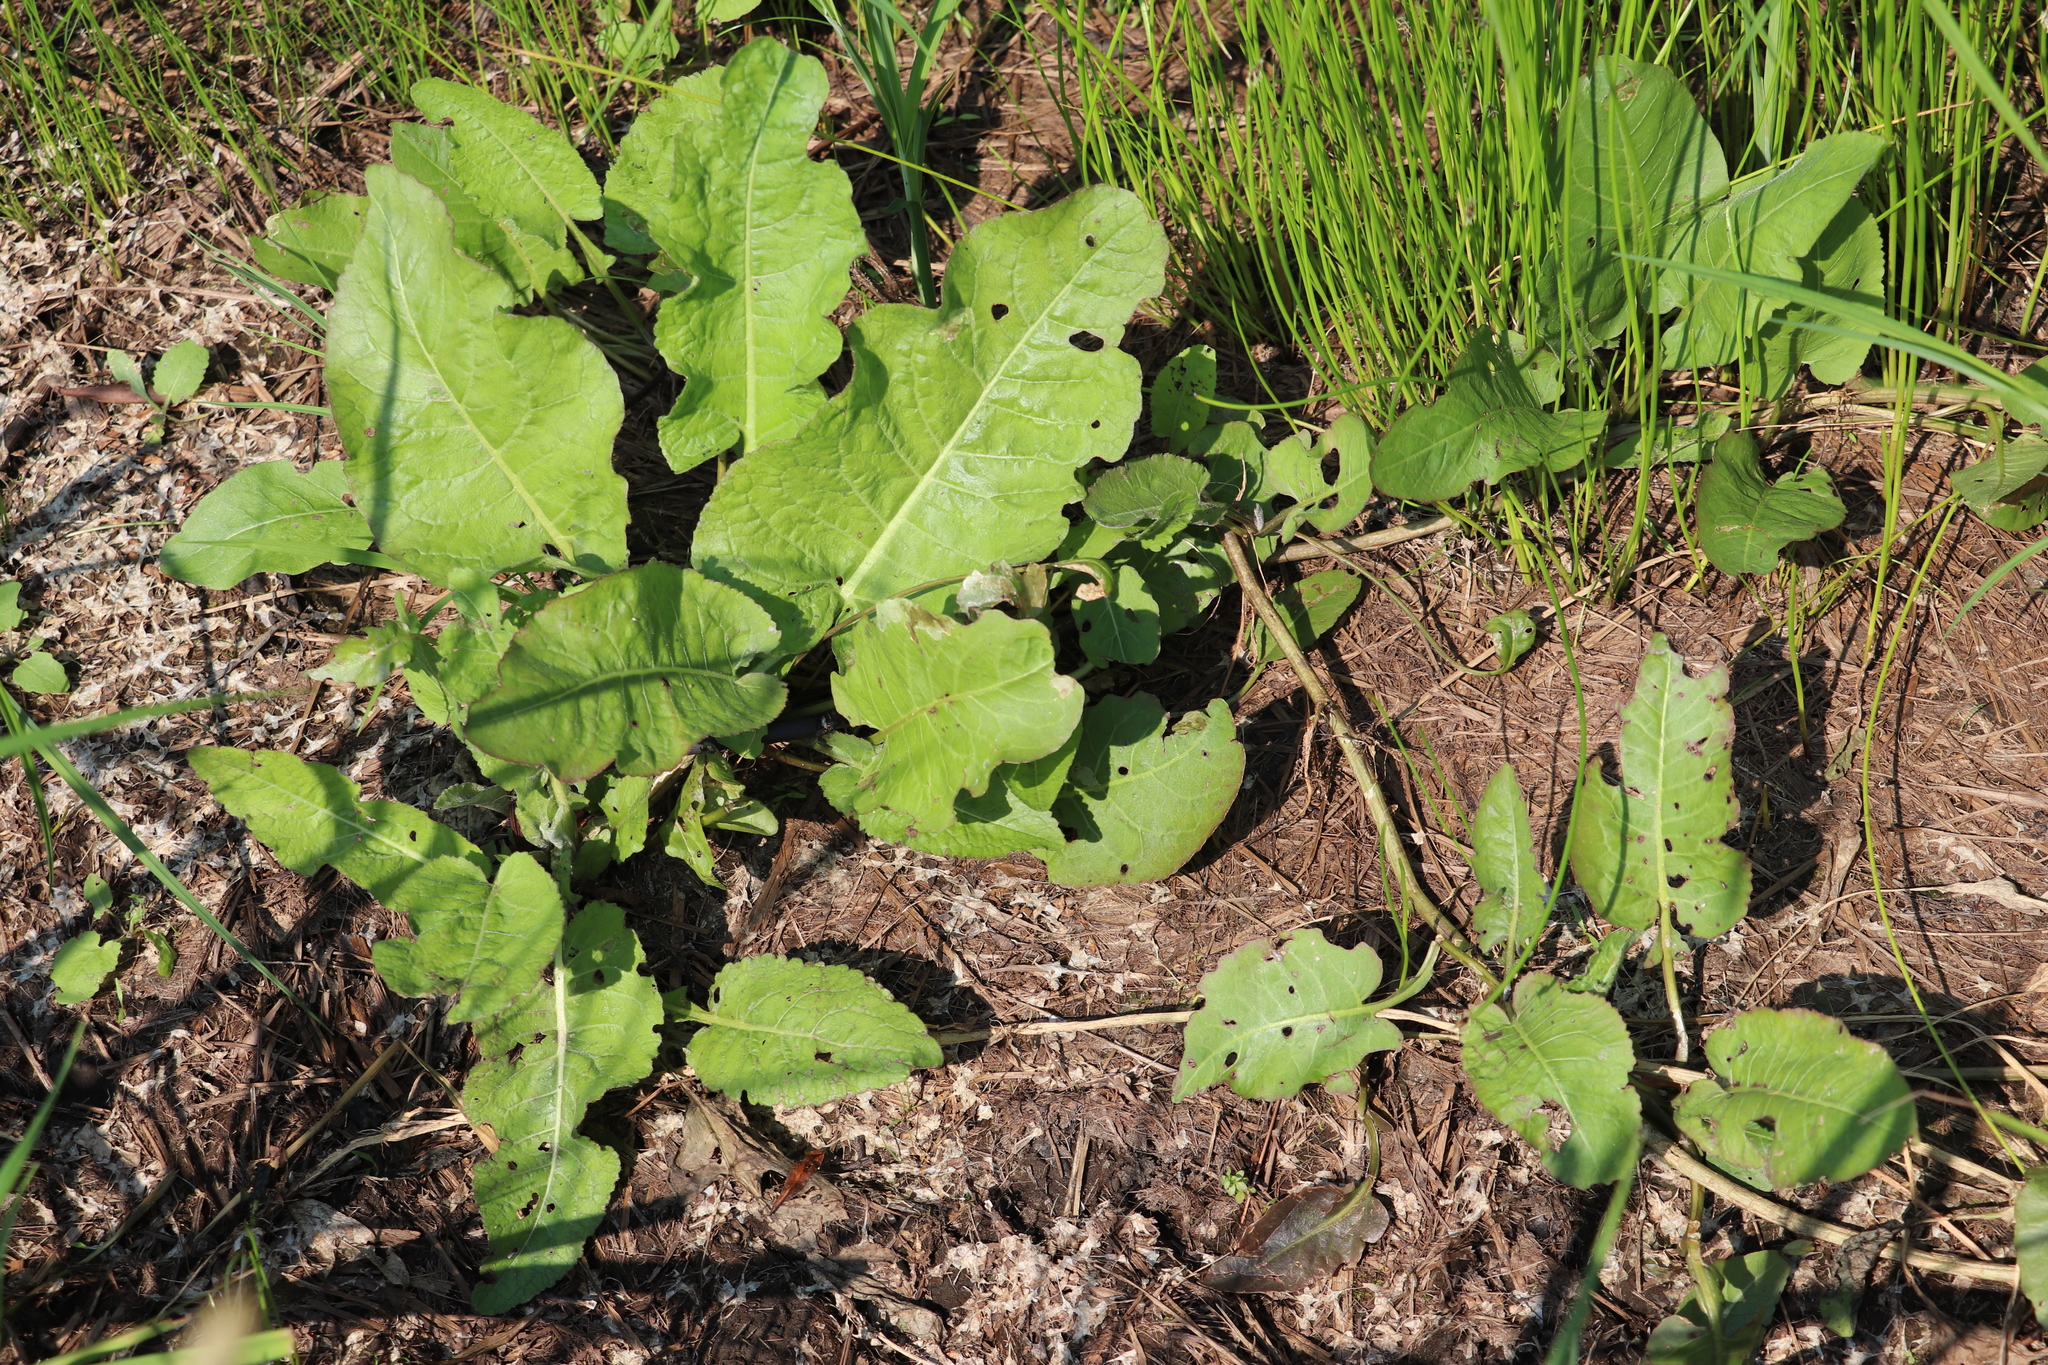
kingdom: Plantae
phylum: Tracheophyta
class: Magnoliopsida
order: Brassicales
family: Brassicaceae
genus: Rorippa
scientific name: Rorippa amphibia
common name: Great yellow-cress
